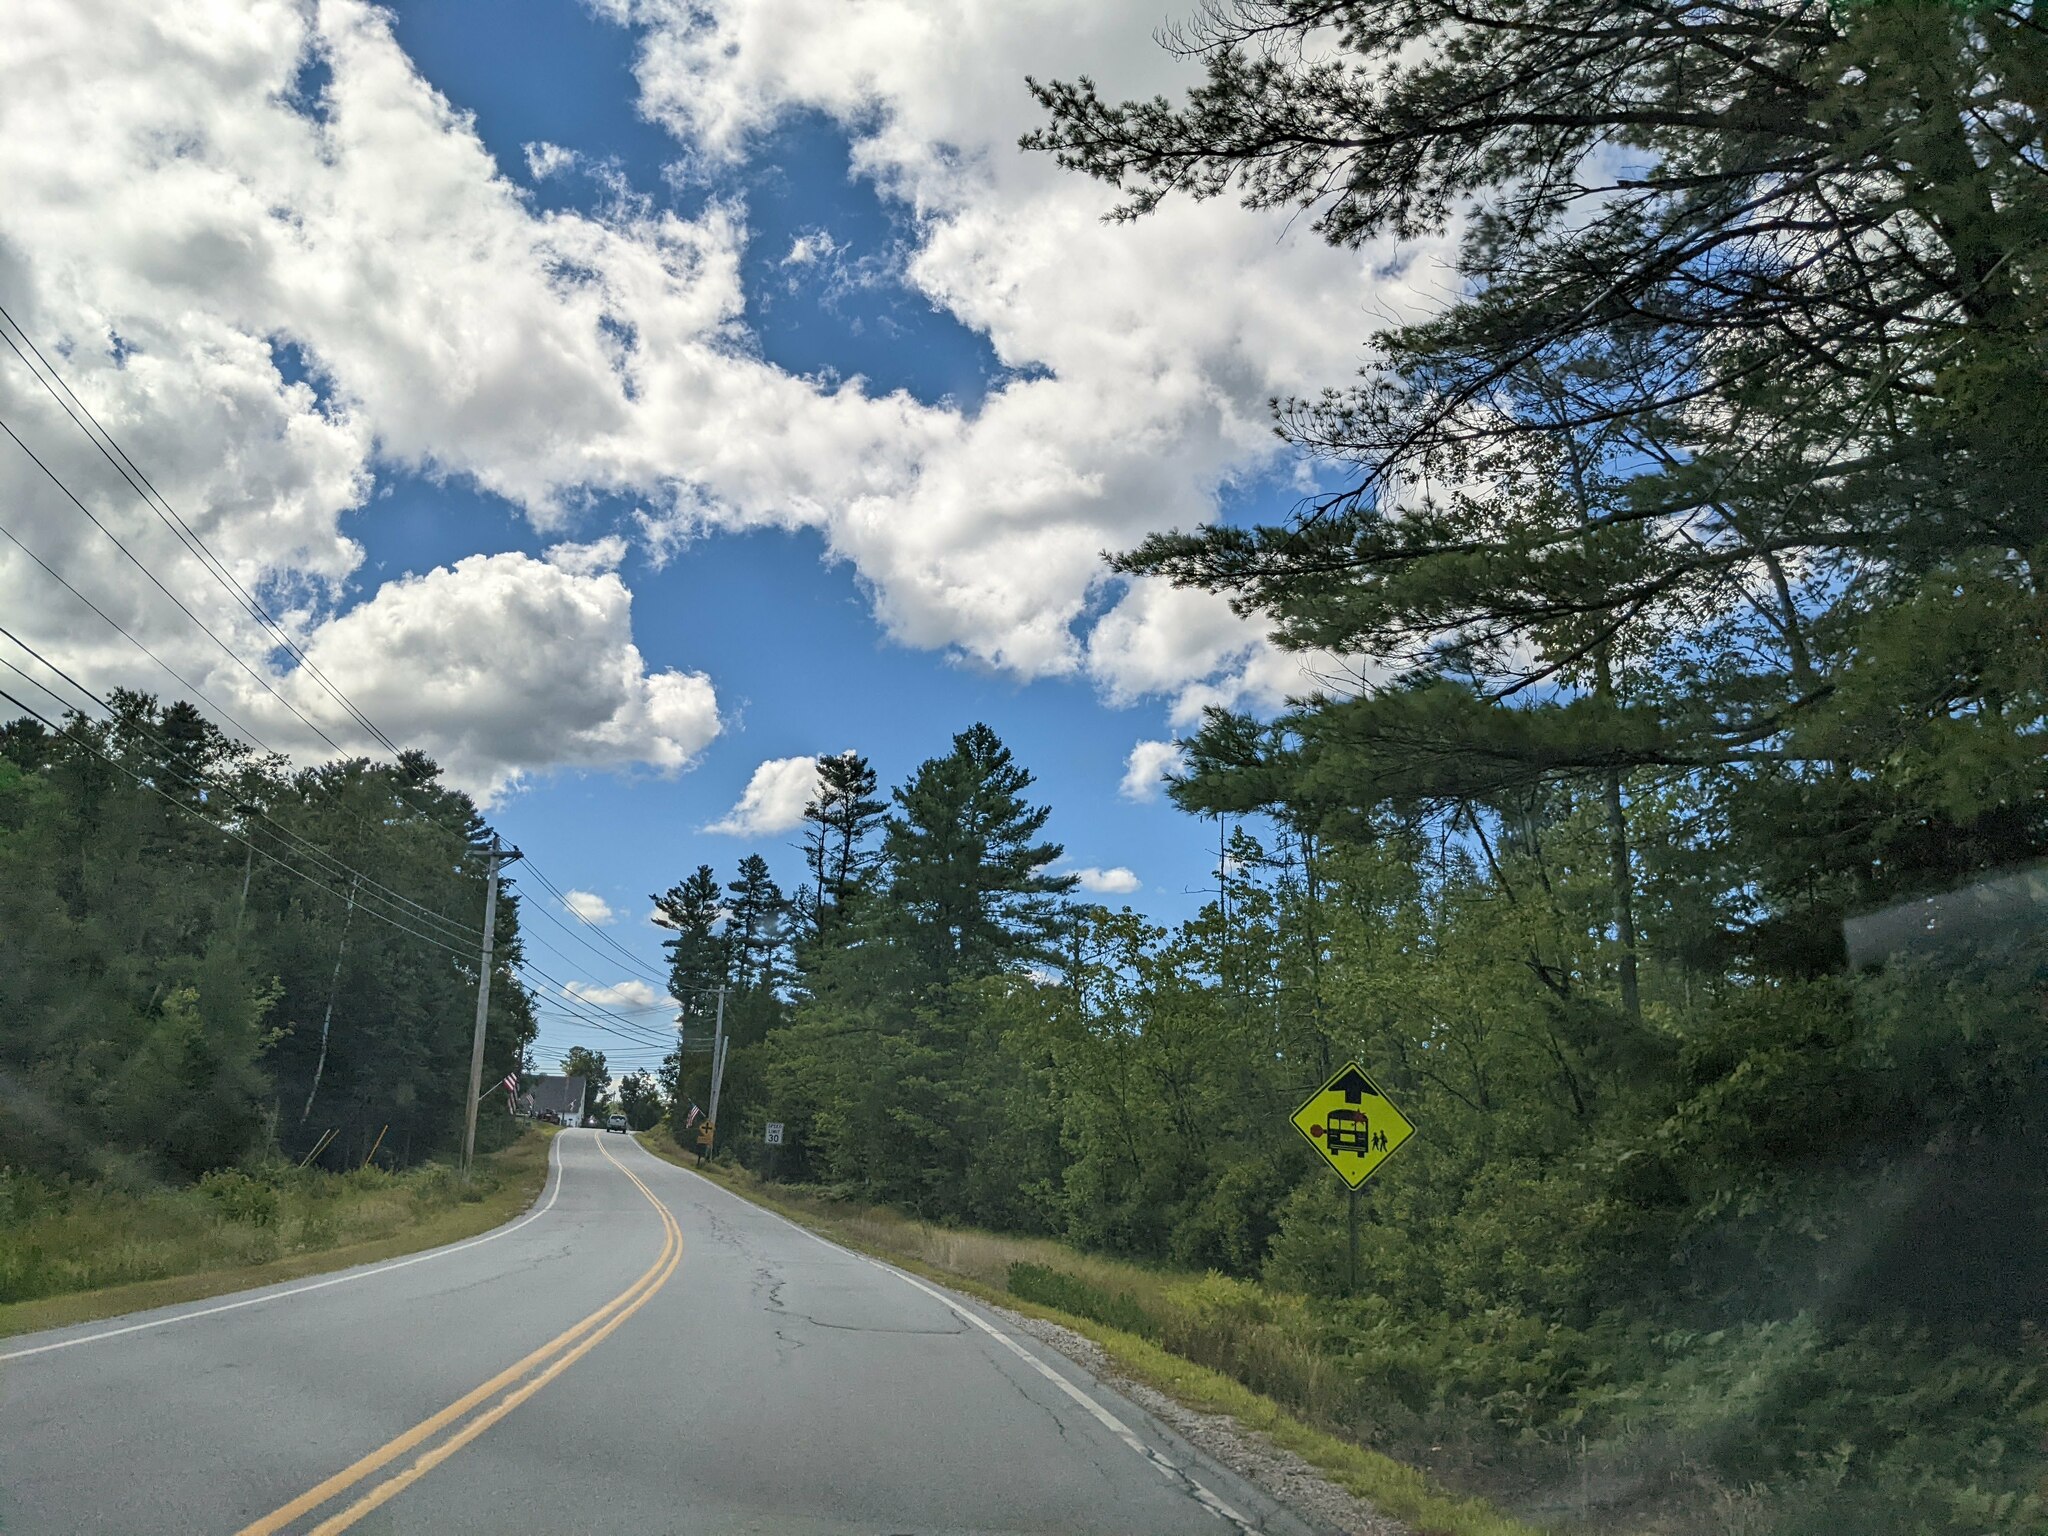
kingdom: Plantae
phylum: Tracheophyta
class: Pinopsida
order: Pinales
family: Pinaceae
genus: Pinus
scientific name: Pinus strobus
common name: Weymouth pine
